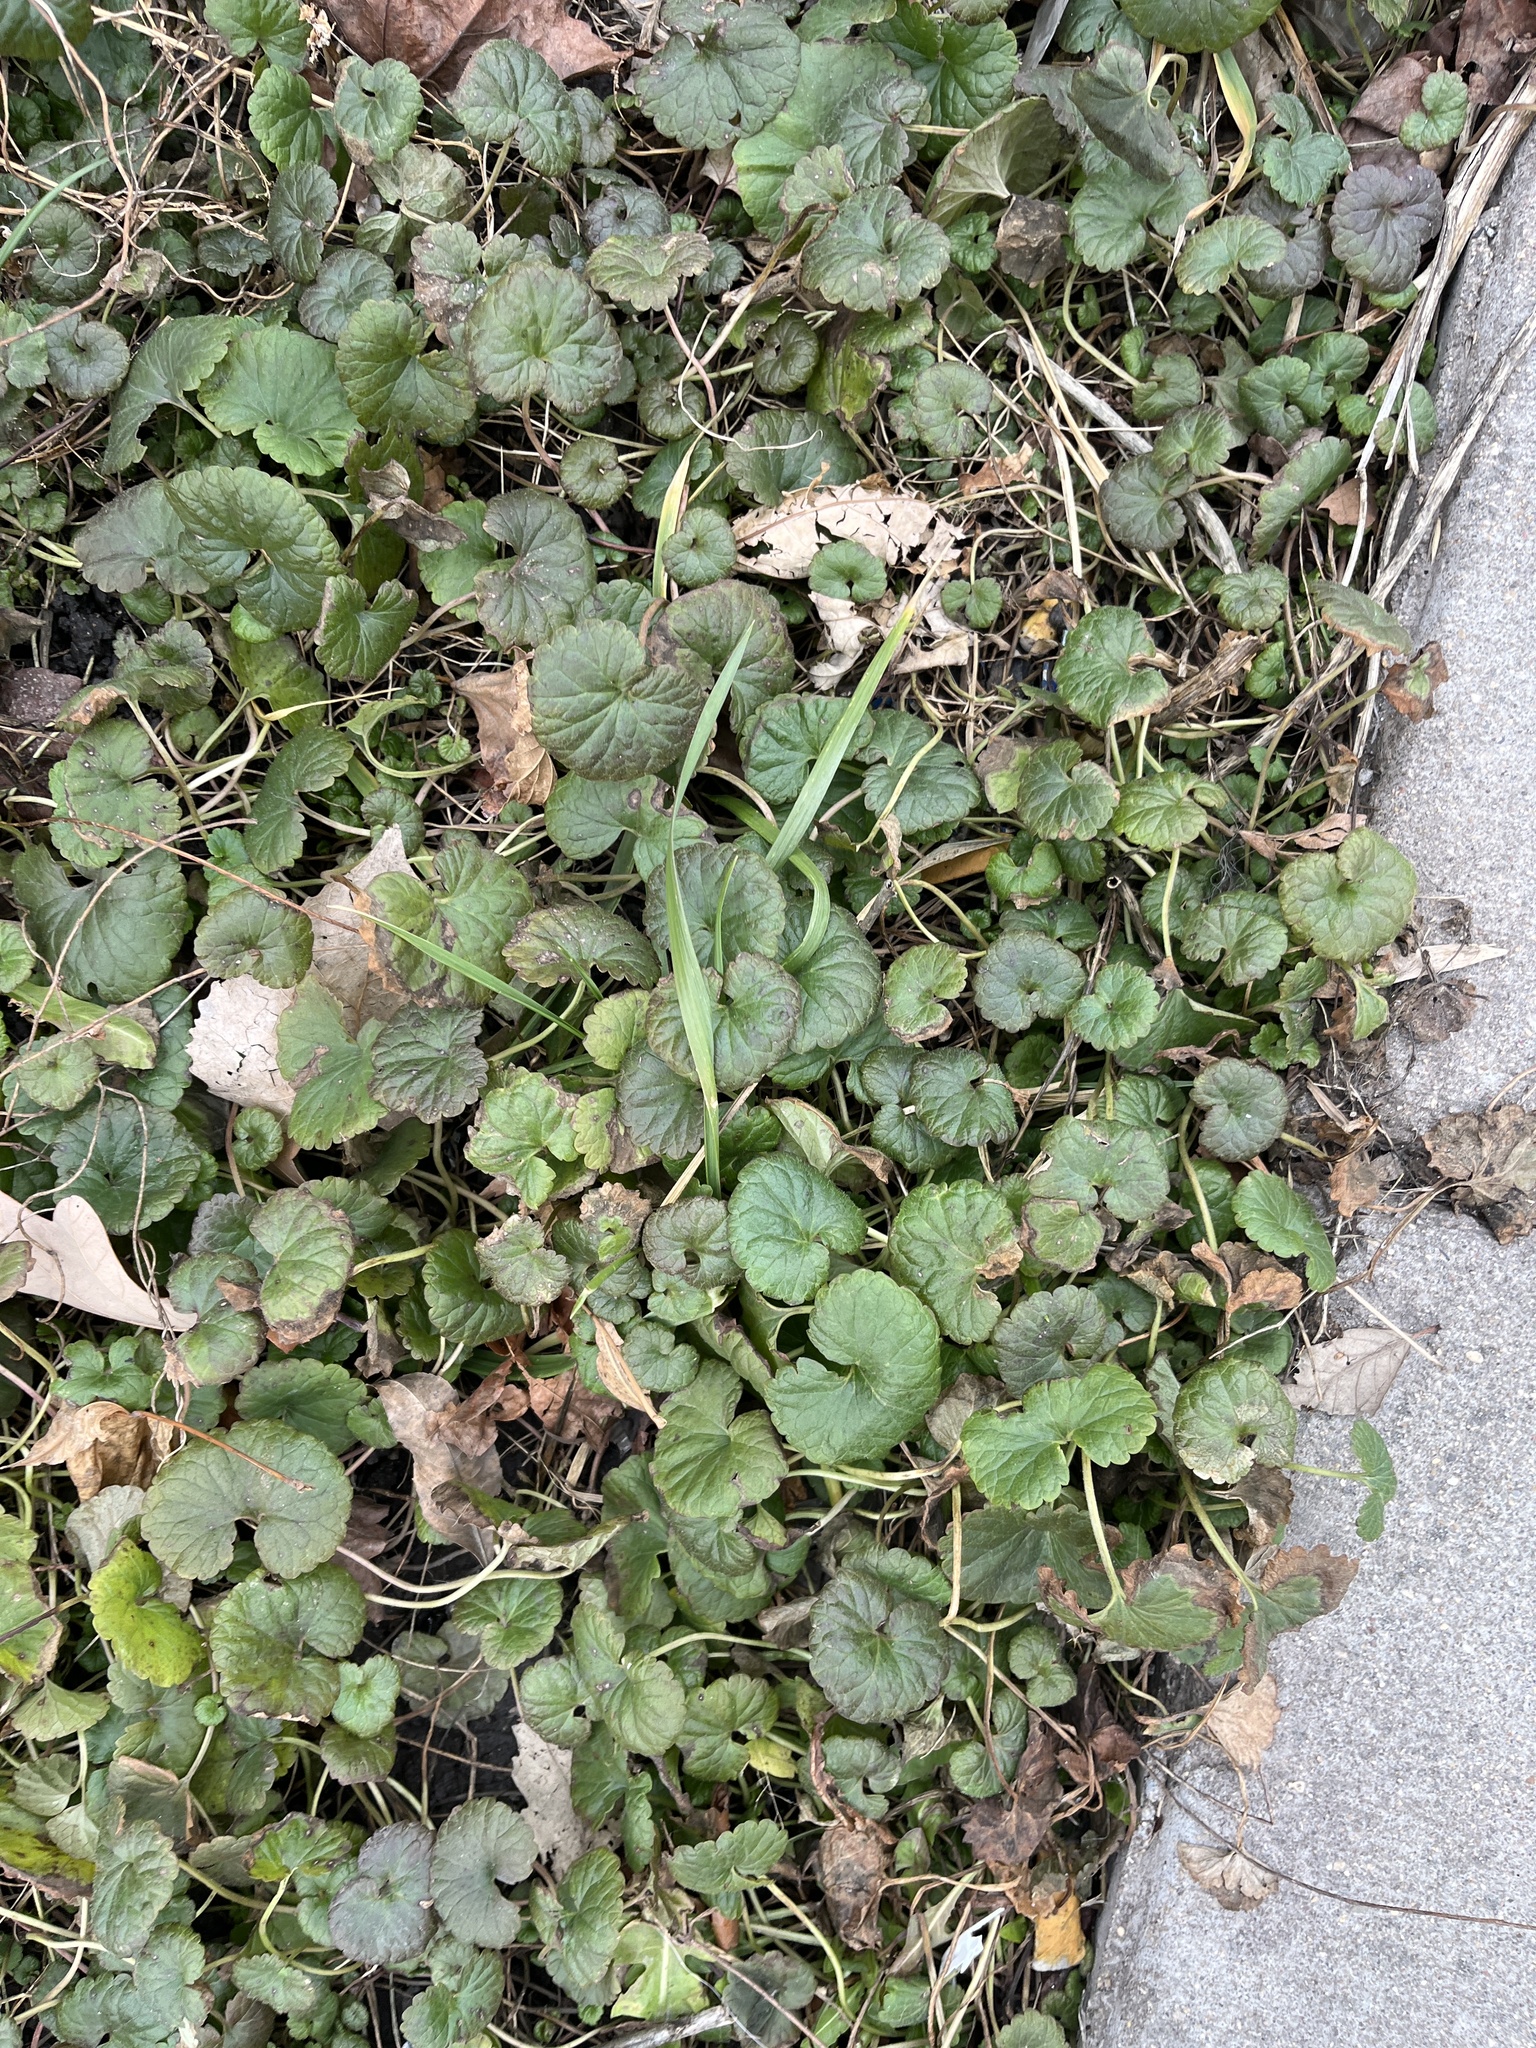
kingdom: Plantae
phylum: Tracheophyta
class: Magnoliopsida
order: Lamiales
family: Lamiaceae
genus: Glechoma
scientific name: Glechoma hederacea
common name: Ground ivy
